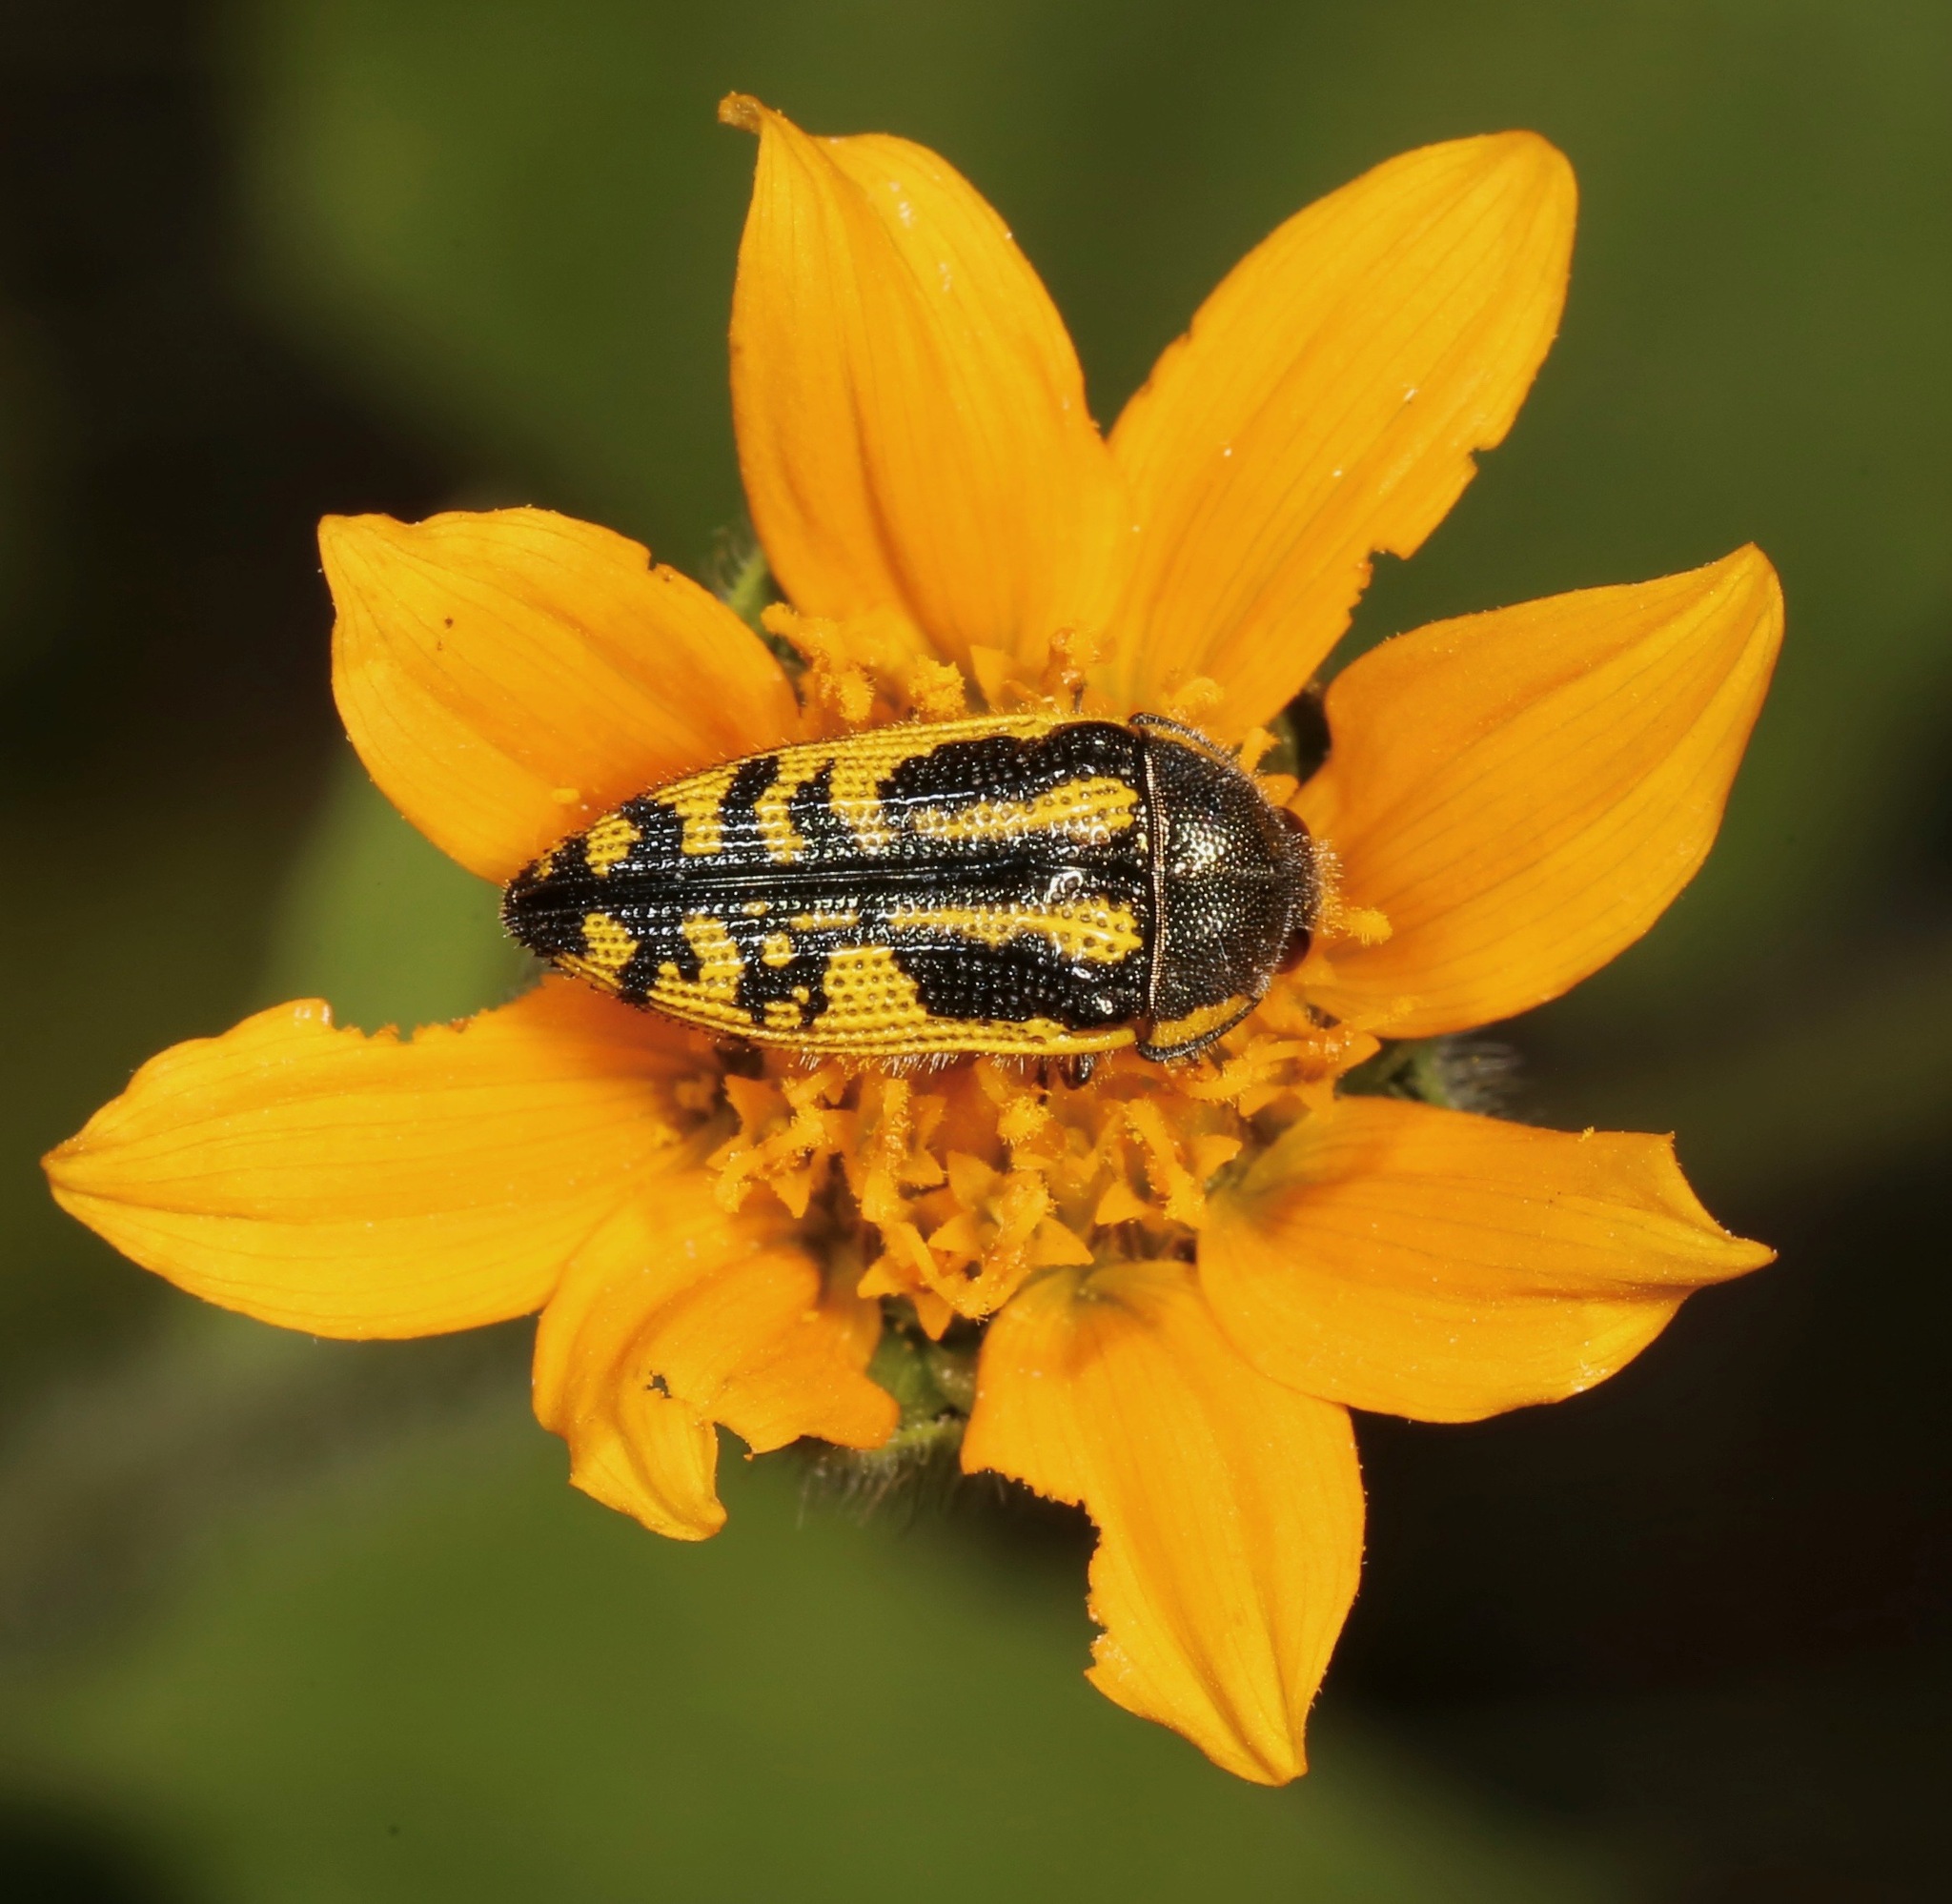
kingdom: Animalia
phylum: Arthropoda
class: Insecta
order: Coleoptera
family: Buprestidae
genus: Acmaeodera
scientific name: Acmaeodera amplicollis
